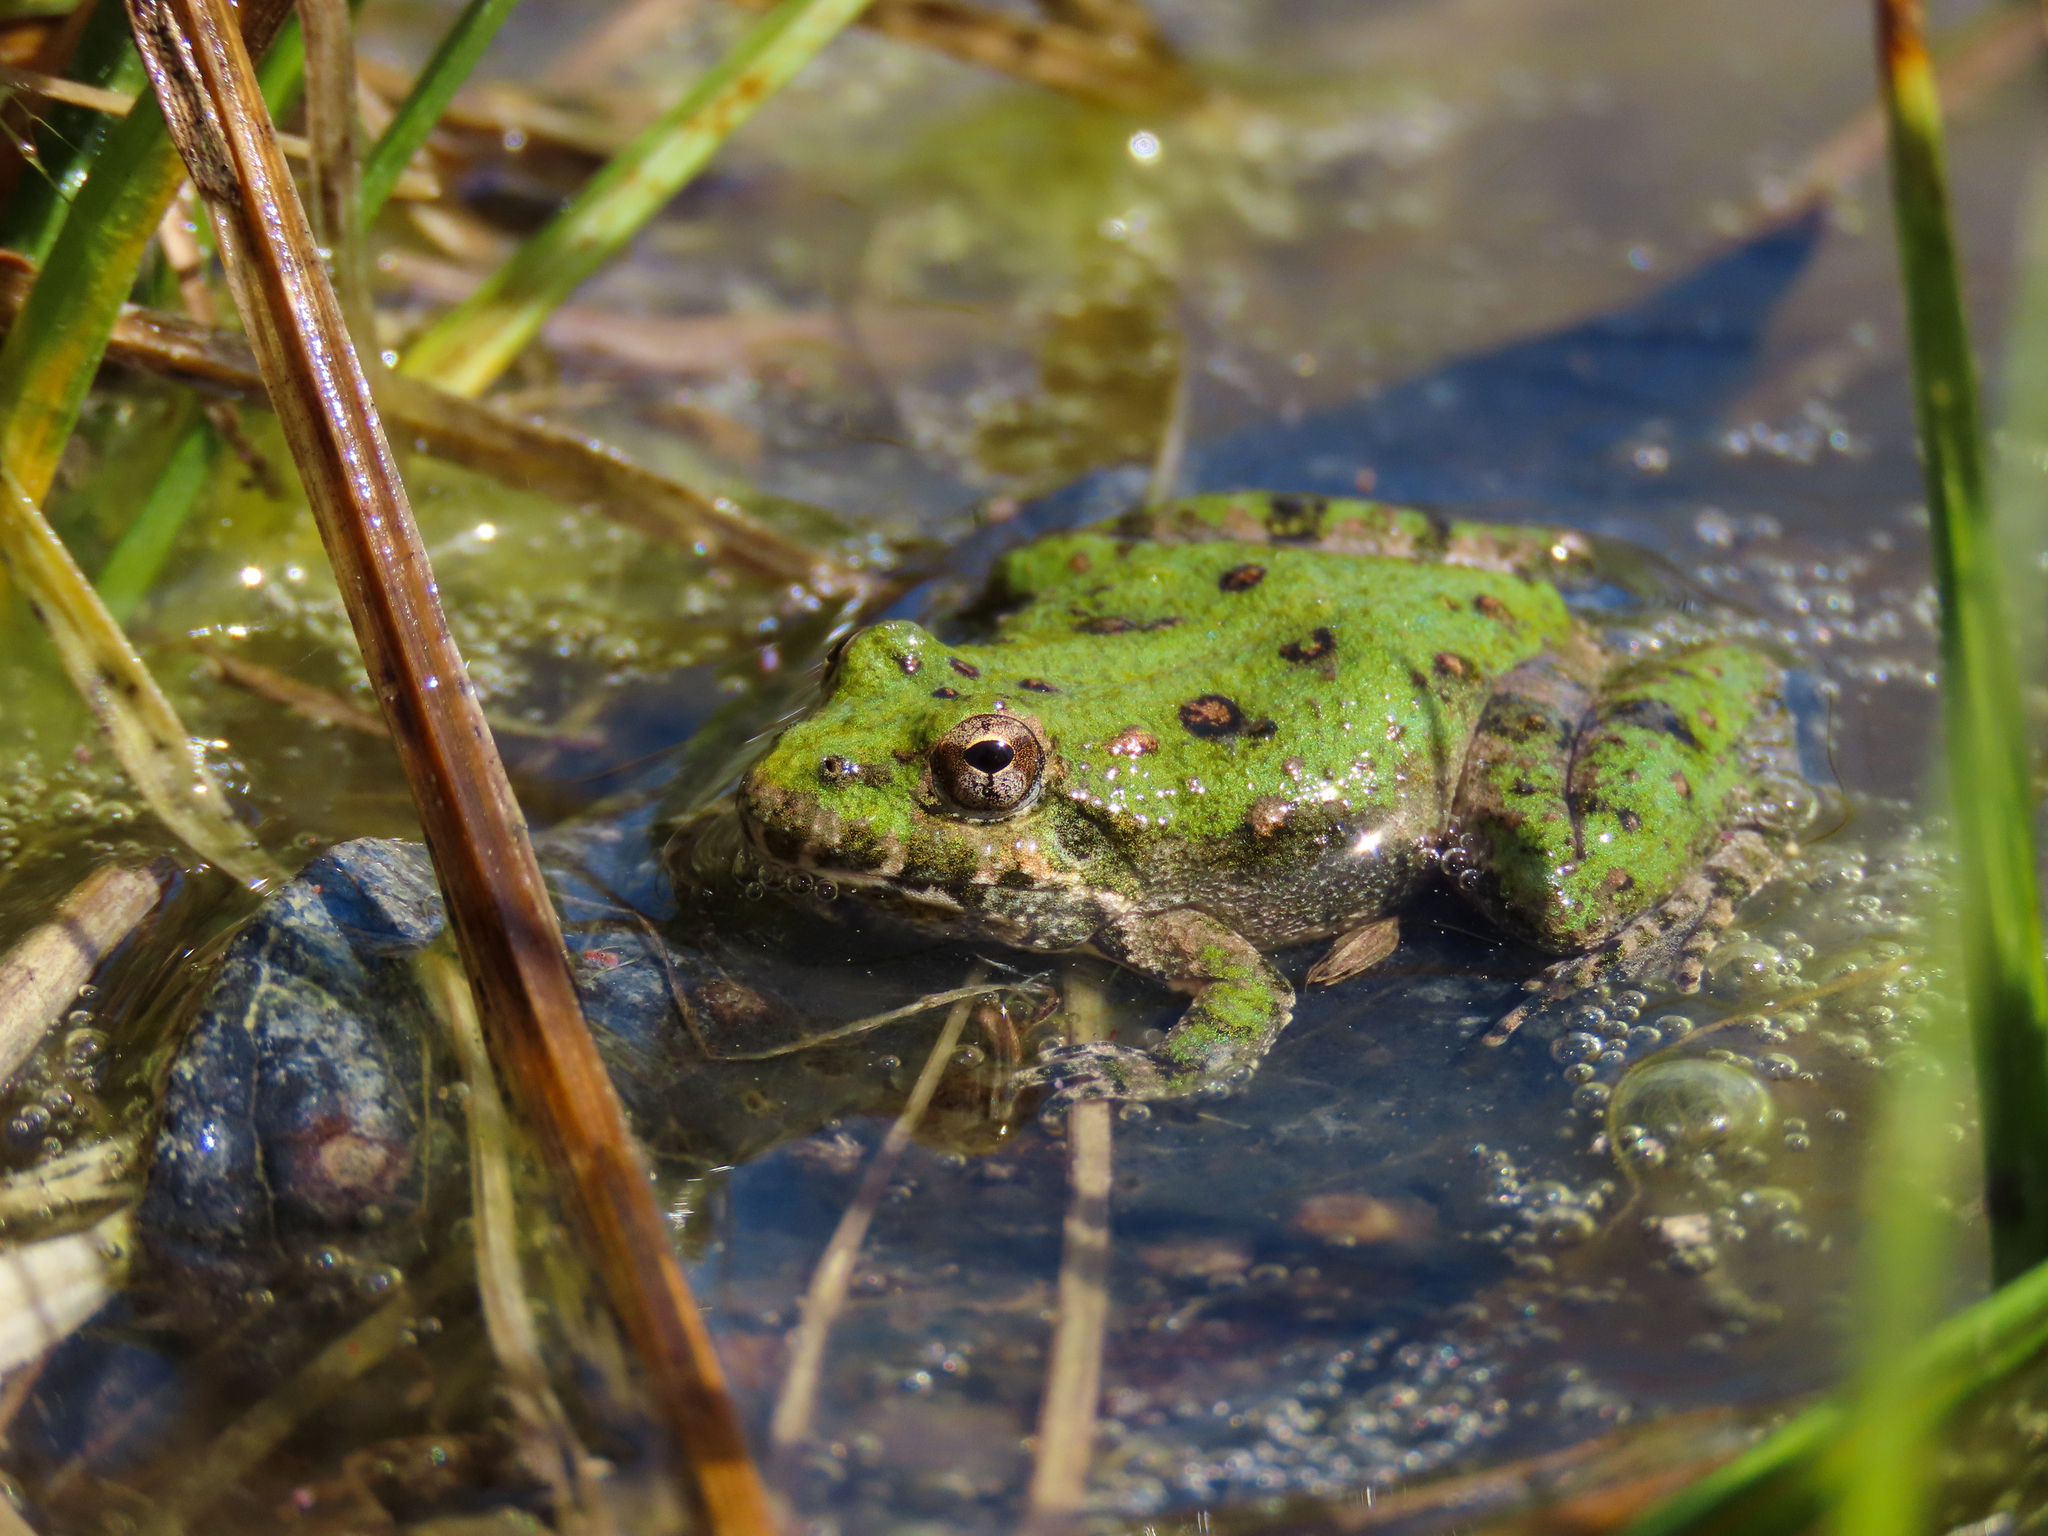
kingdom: Animalia
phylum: Chordata
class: Amphibia
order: Anura
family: Hylidae
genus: Acris
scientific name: Acris blanchardi
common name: Blanchard's cricket frog
